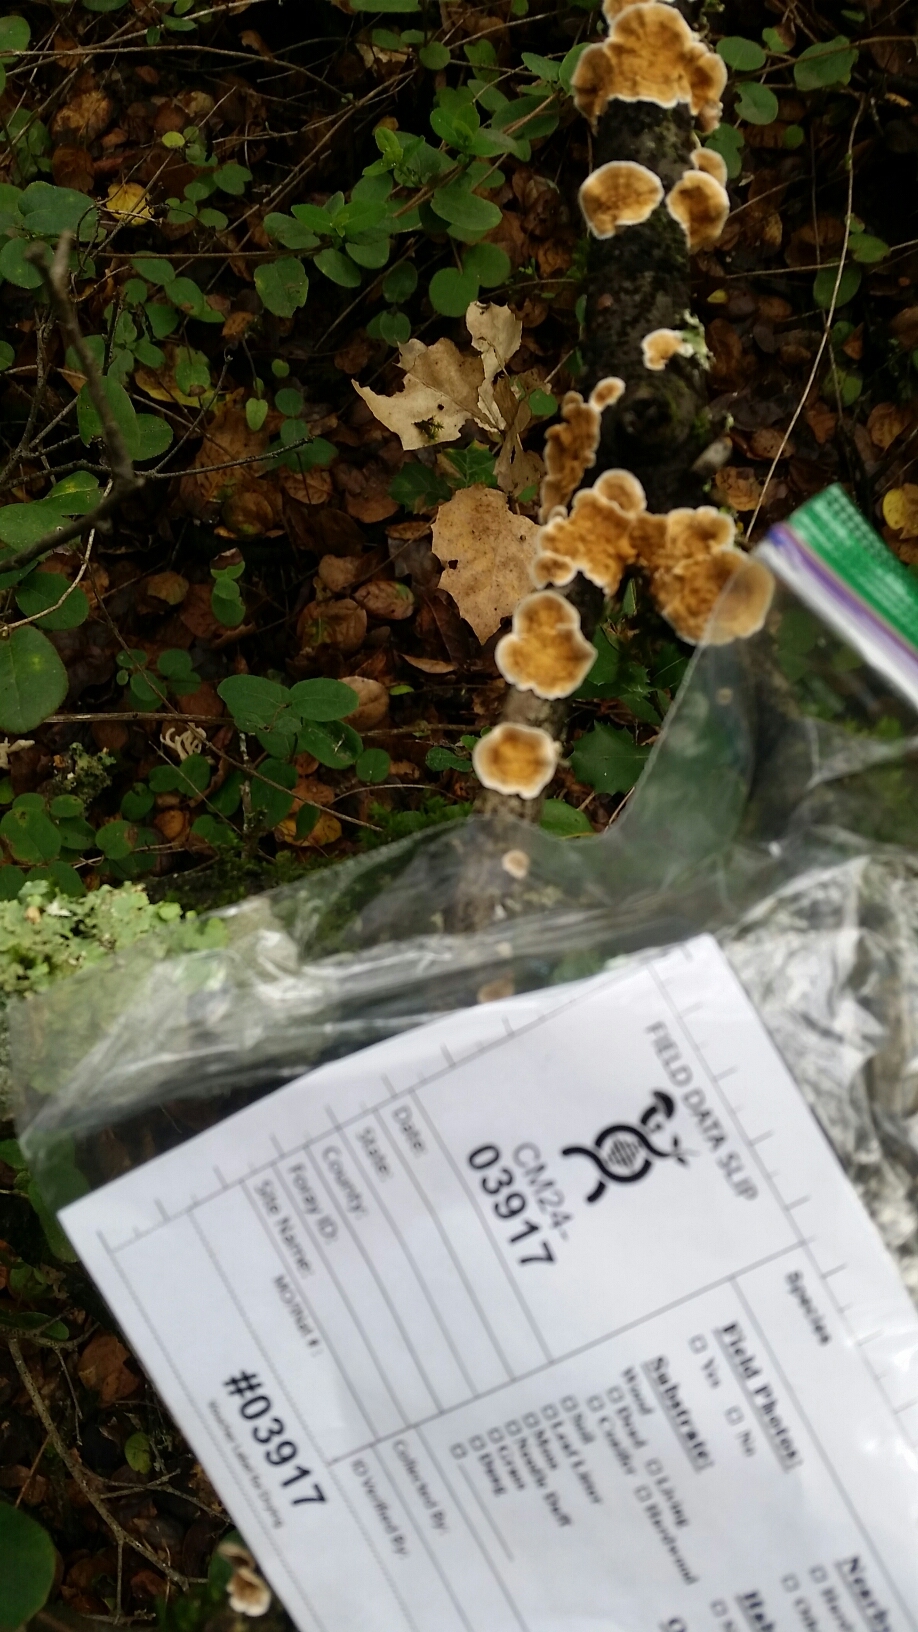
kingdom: Fungi
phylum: Basidiomycota
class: Agaricomycetes
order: Russulales
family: Stereaceae
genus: Stereum
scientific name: Stereum ochraceoflavum
